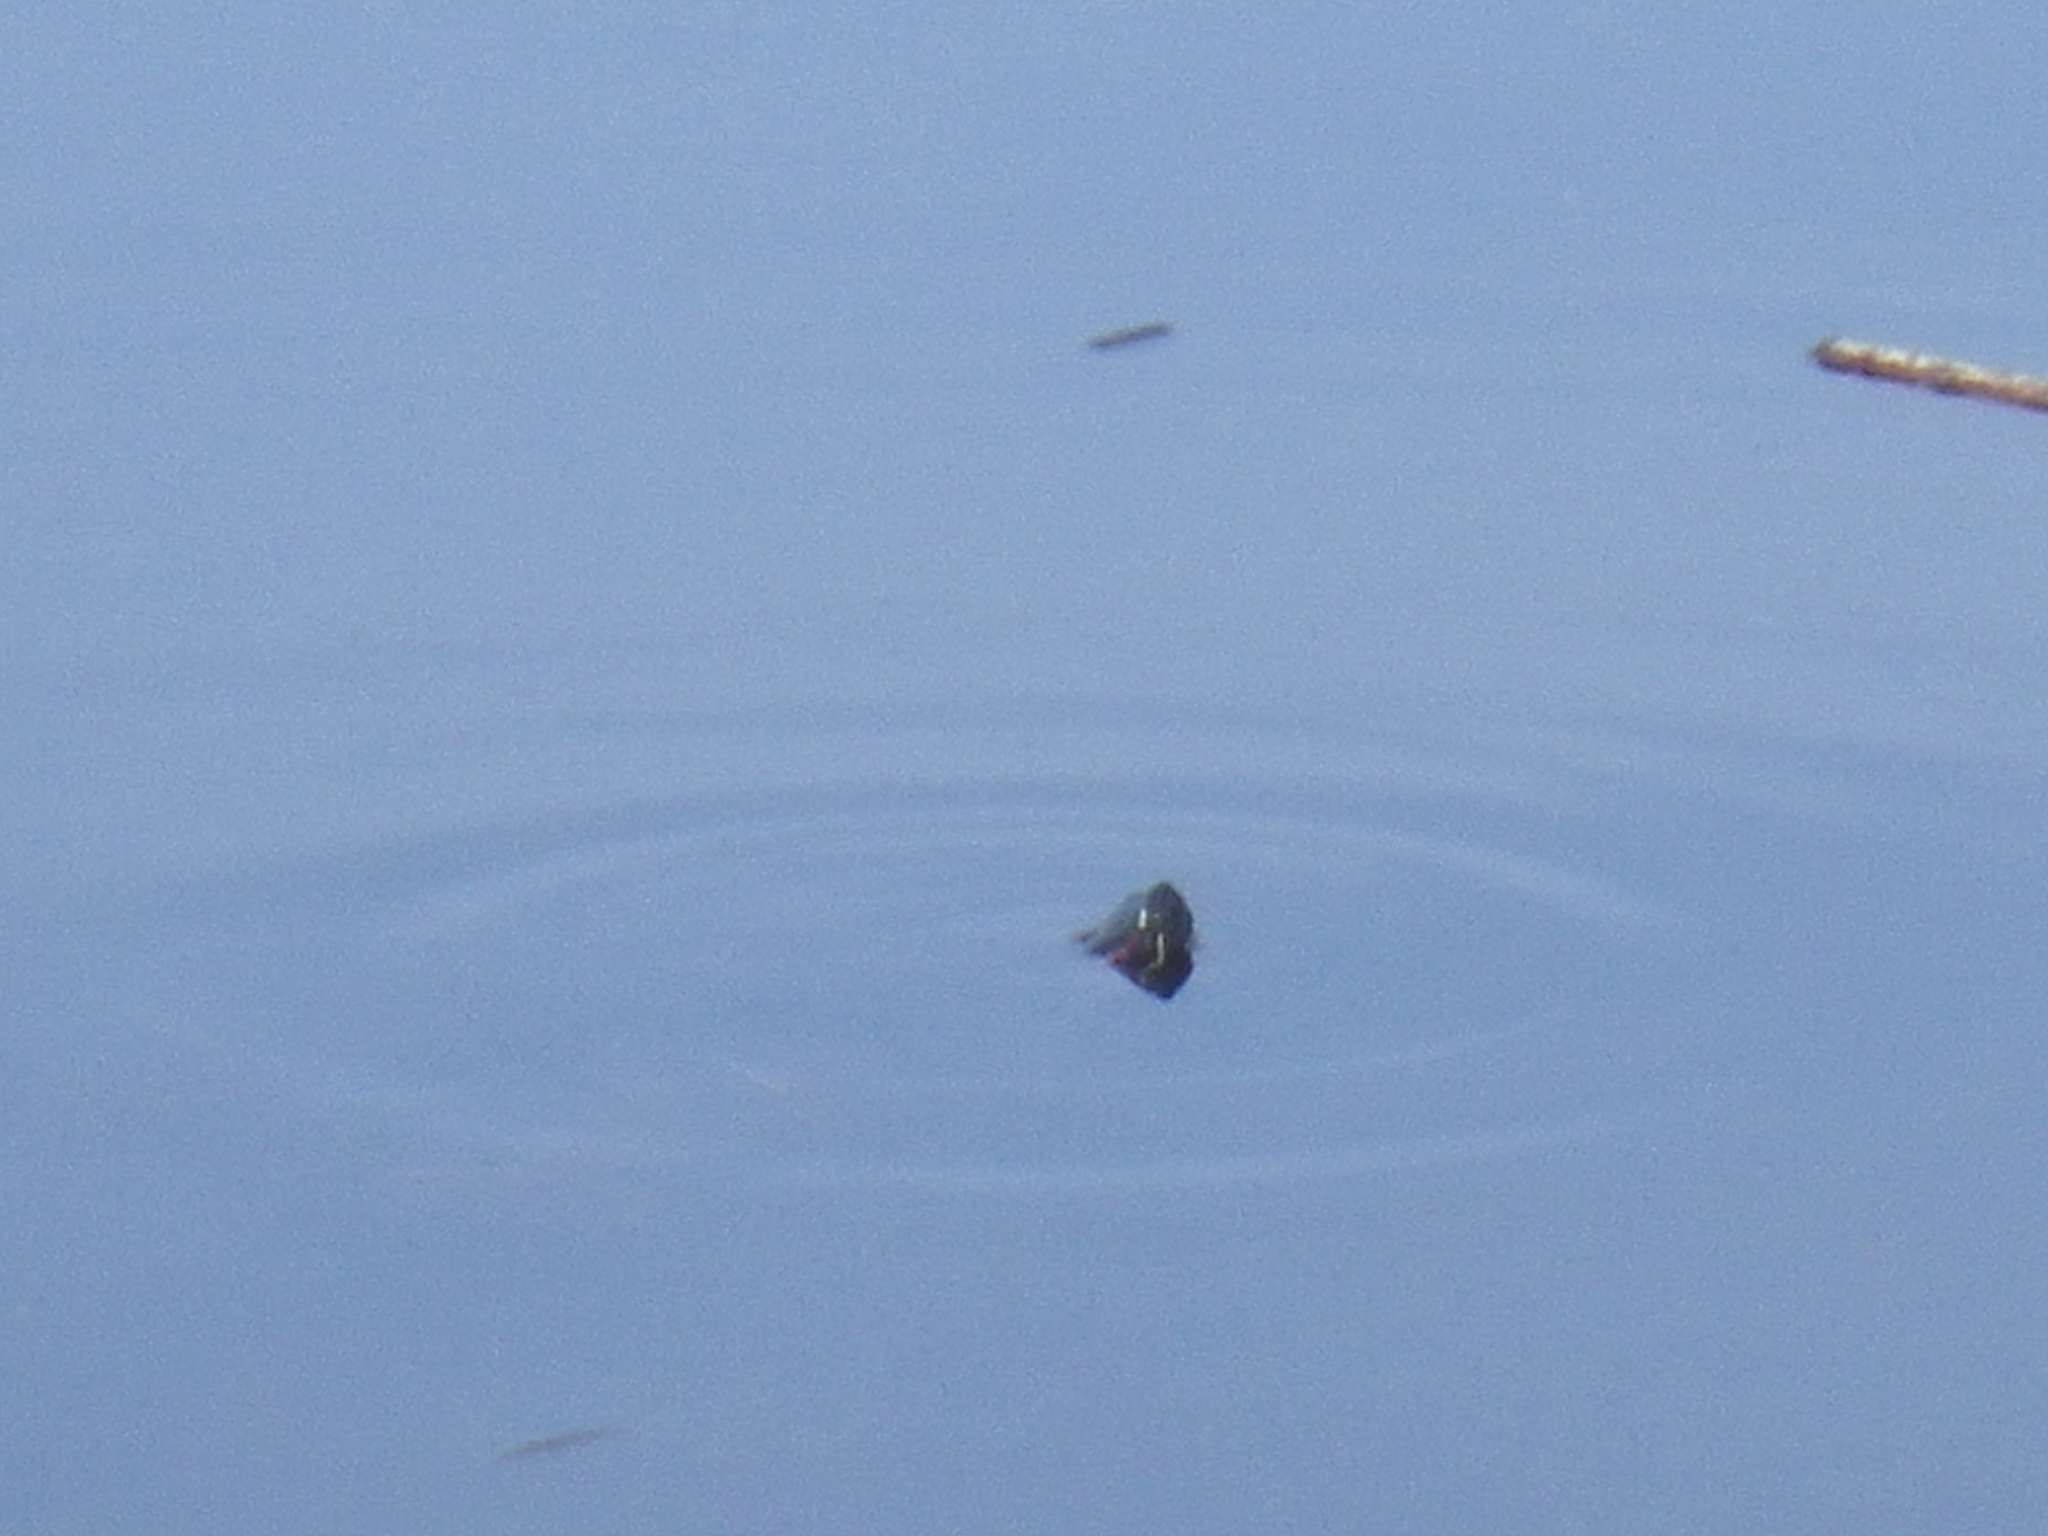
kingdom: Animalia
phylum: Chordata
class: Testudines
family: Emydidae
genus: Trachemys
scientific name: Trachemys scripta
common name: Slider
